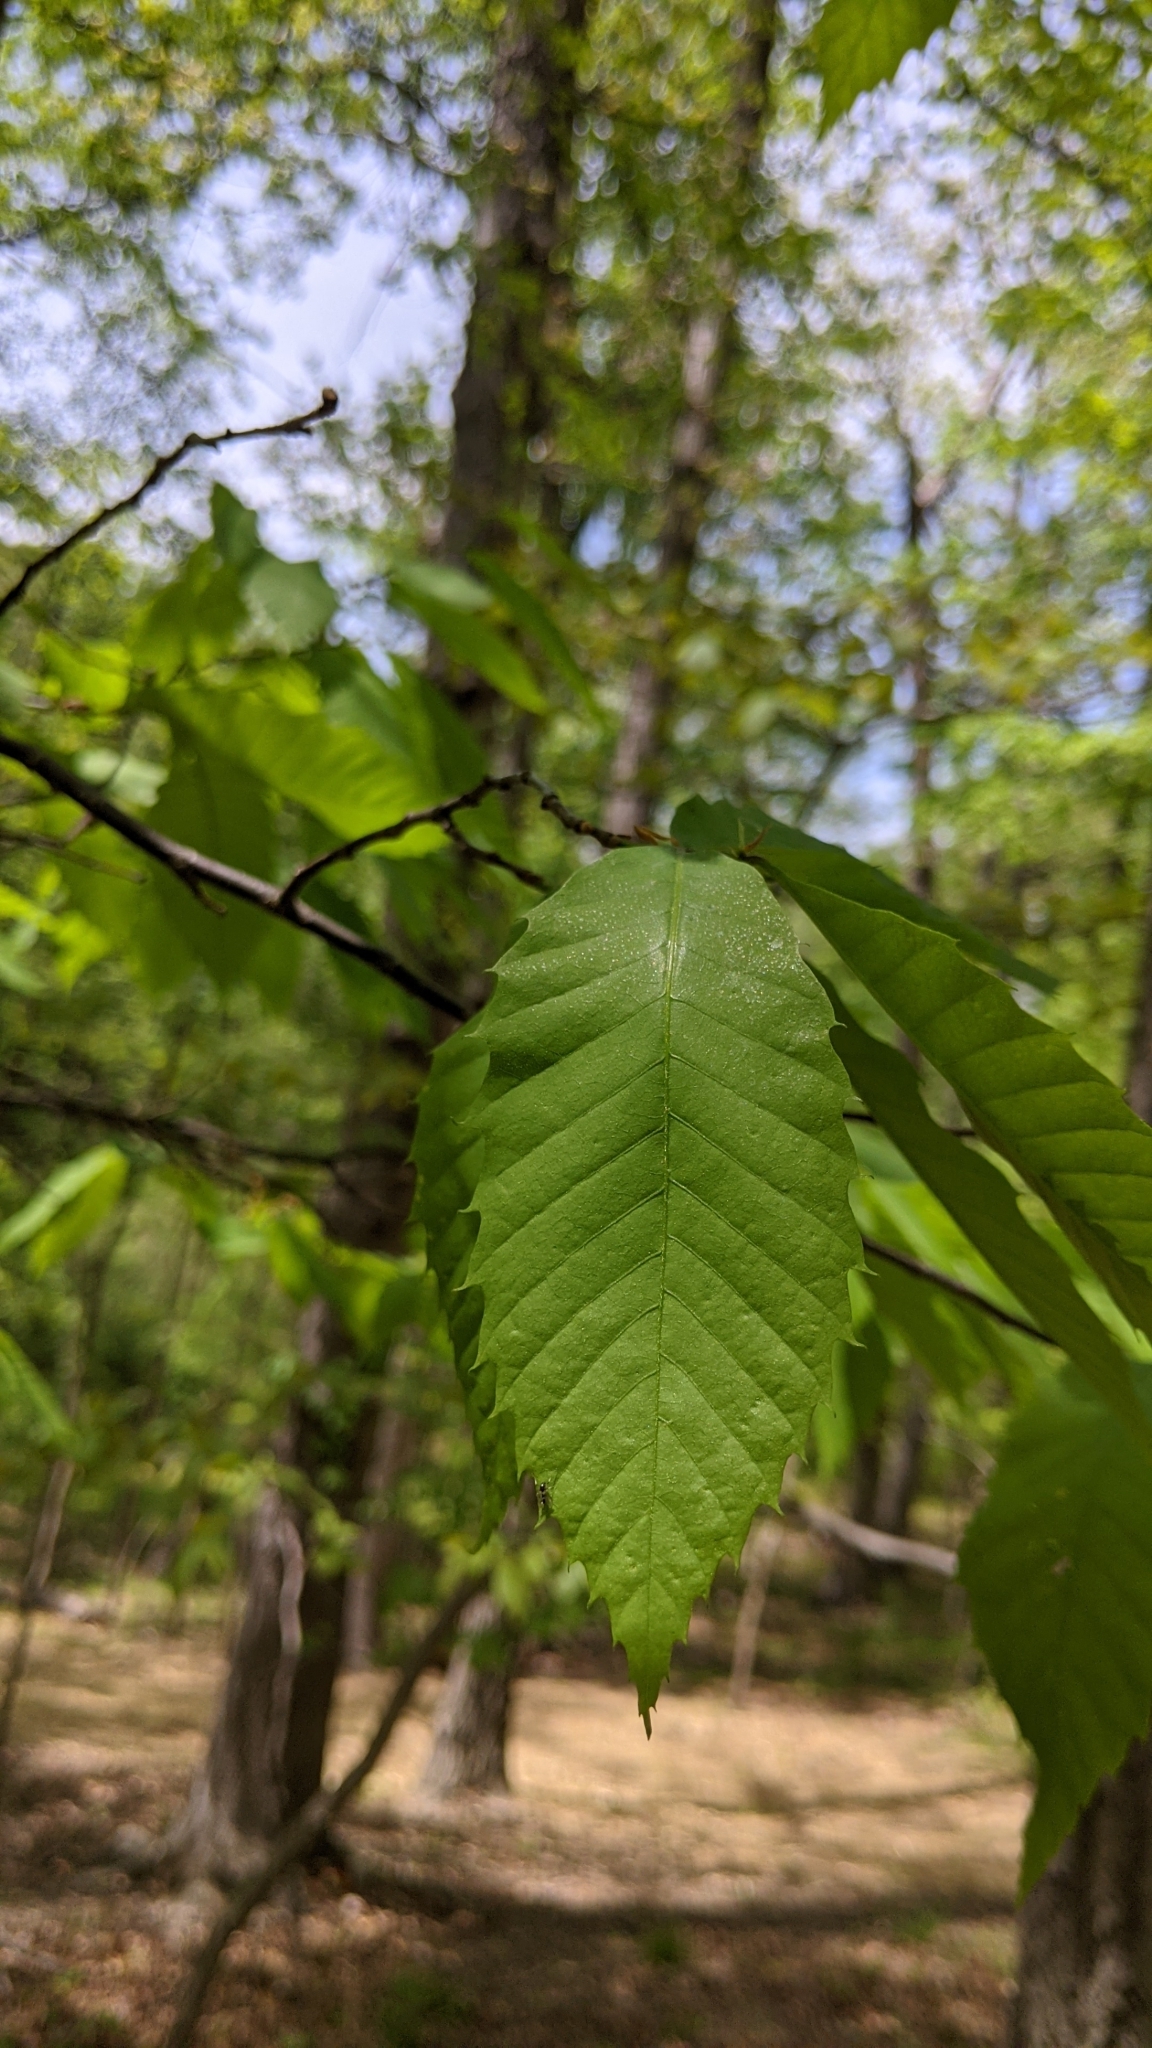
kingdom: Plantae
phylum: Tracheophyta
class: Magnoliopsida
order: Fagales
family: Fagaceae
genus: Castanea
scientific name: Castanea dentata
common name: American chestnut
